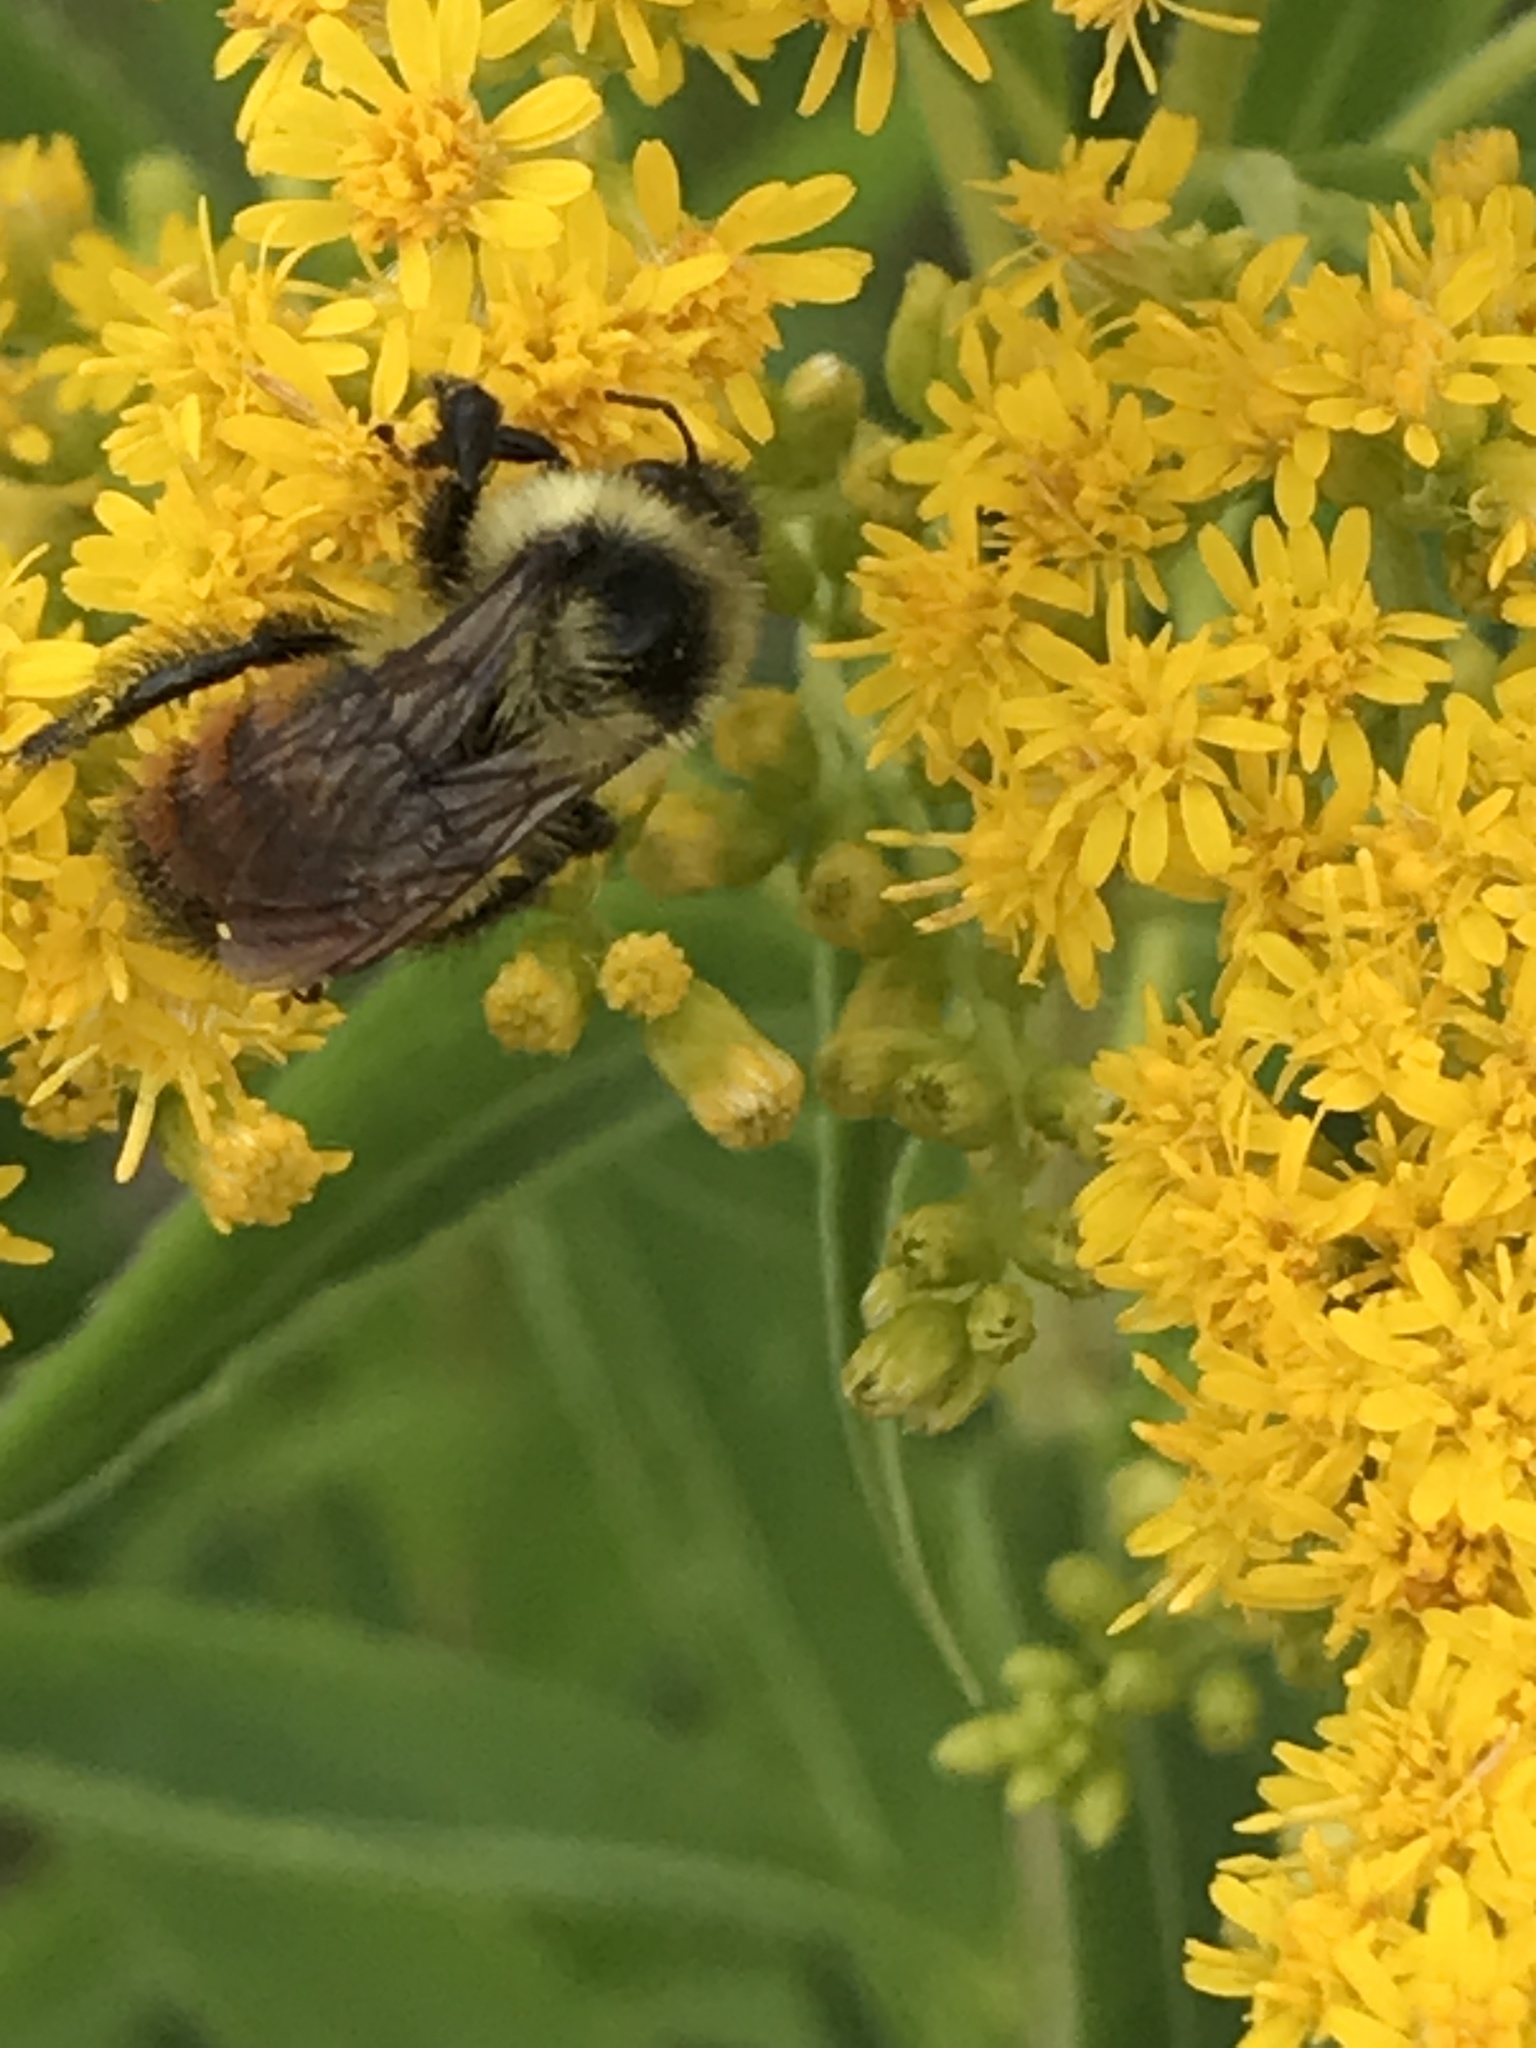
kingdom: Animalia
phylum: Arthropoda
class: Insecta
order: Hymenoptera
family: Apidae
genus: Bombus
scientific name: Bombus rufocinctus
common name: Red-belted bumble bee
